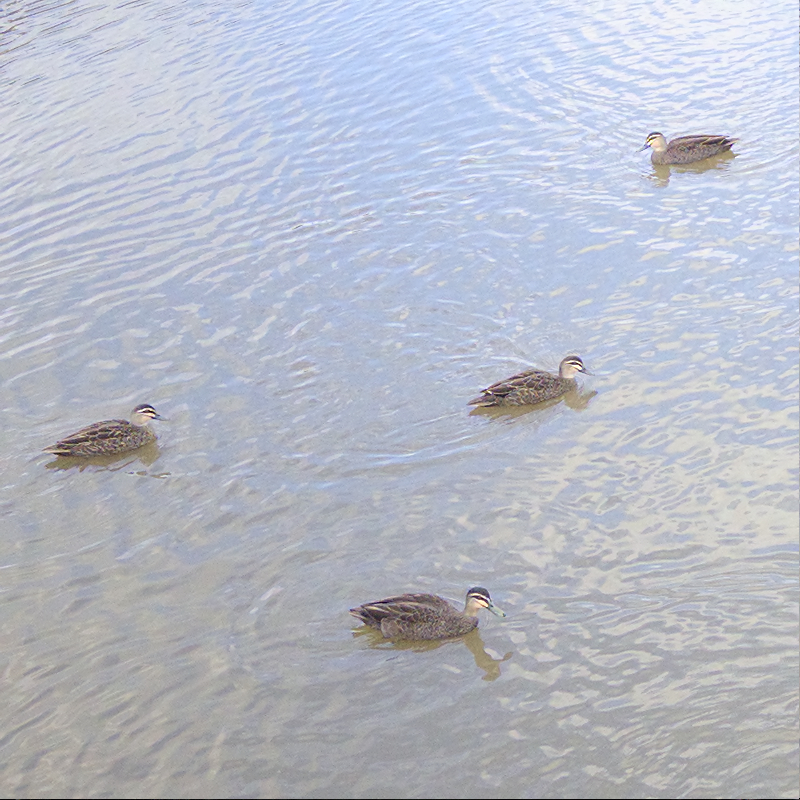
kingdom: Animalia
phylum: Chordata
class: Aves
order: Anseriformes
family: Anatidae
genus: Anas
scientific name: Anas superciliosa
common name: Pacific black duck
